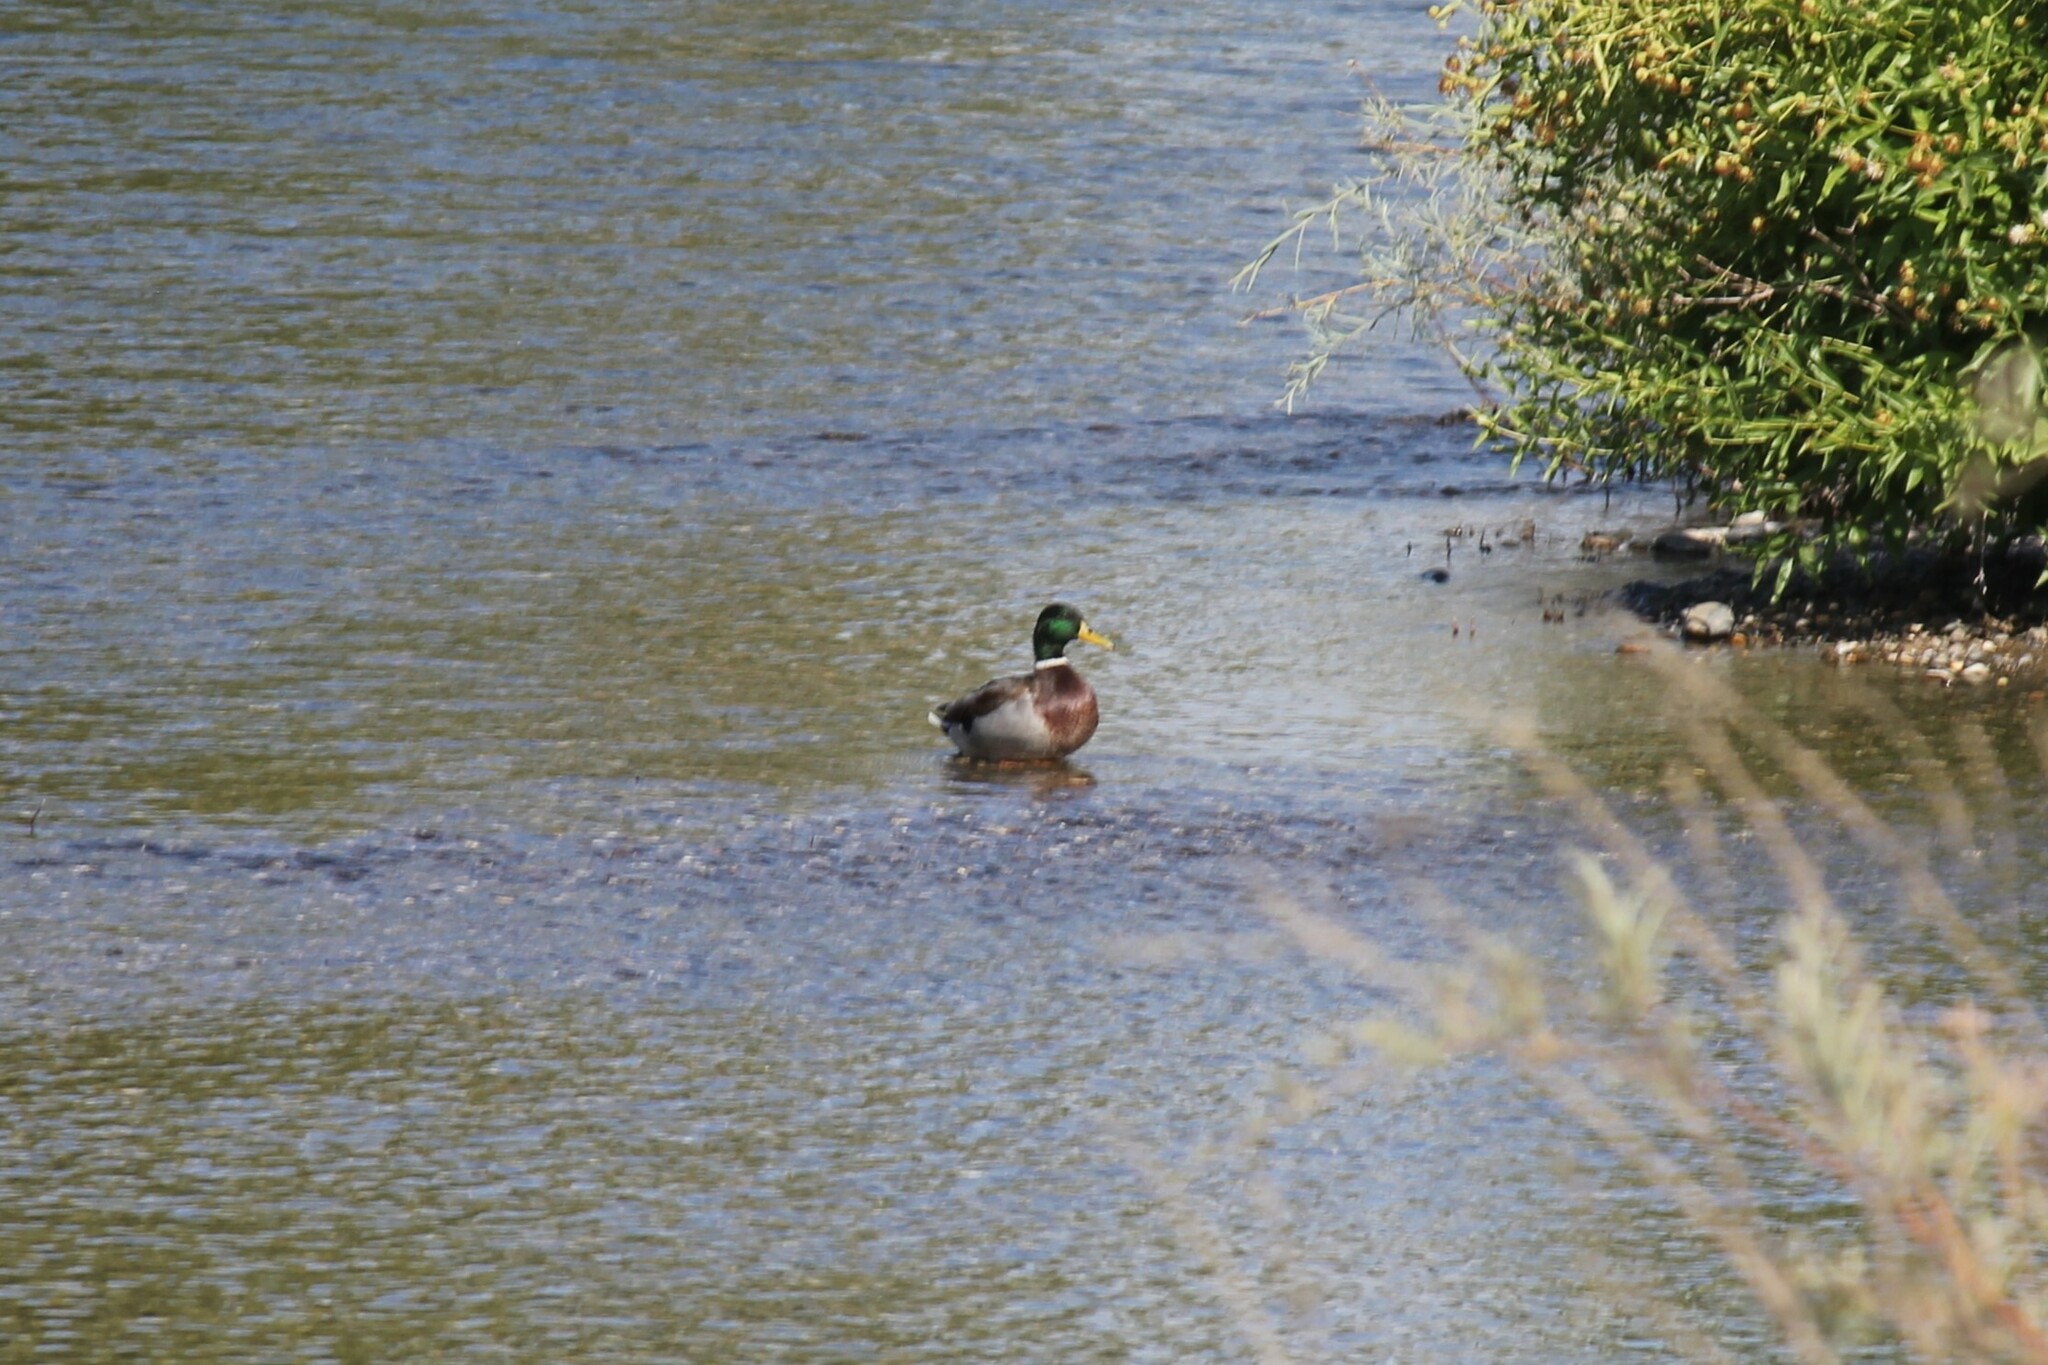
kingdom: Animalia
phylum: Chordata
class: Aves
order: Anseriformes
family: Anatidae
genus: Anas
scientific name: Anas platyrhynchos
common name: Mallard
